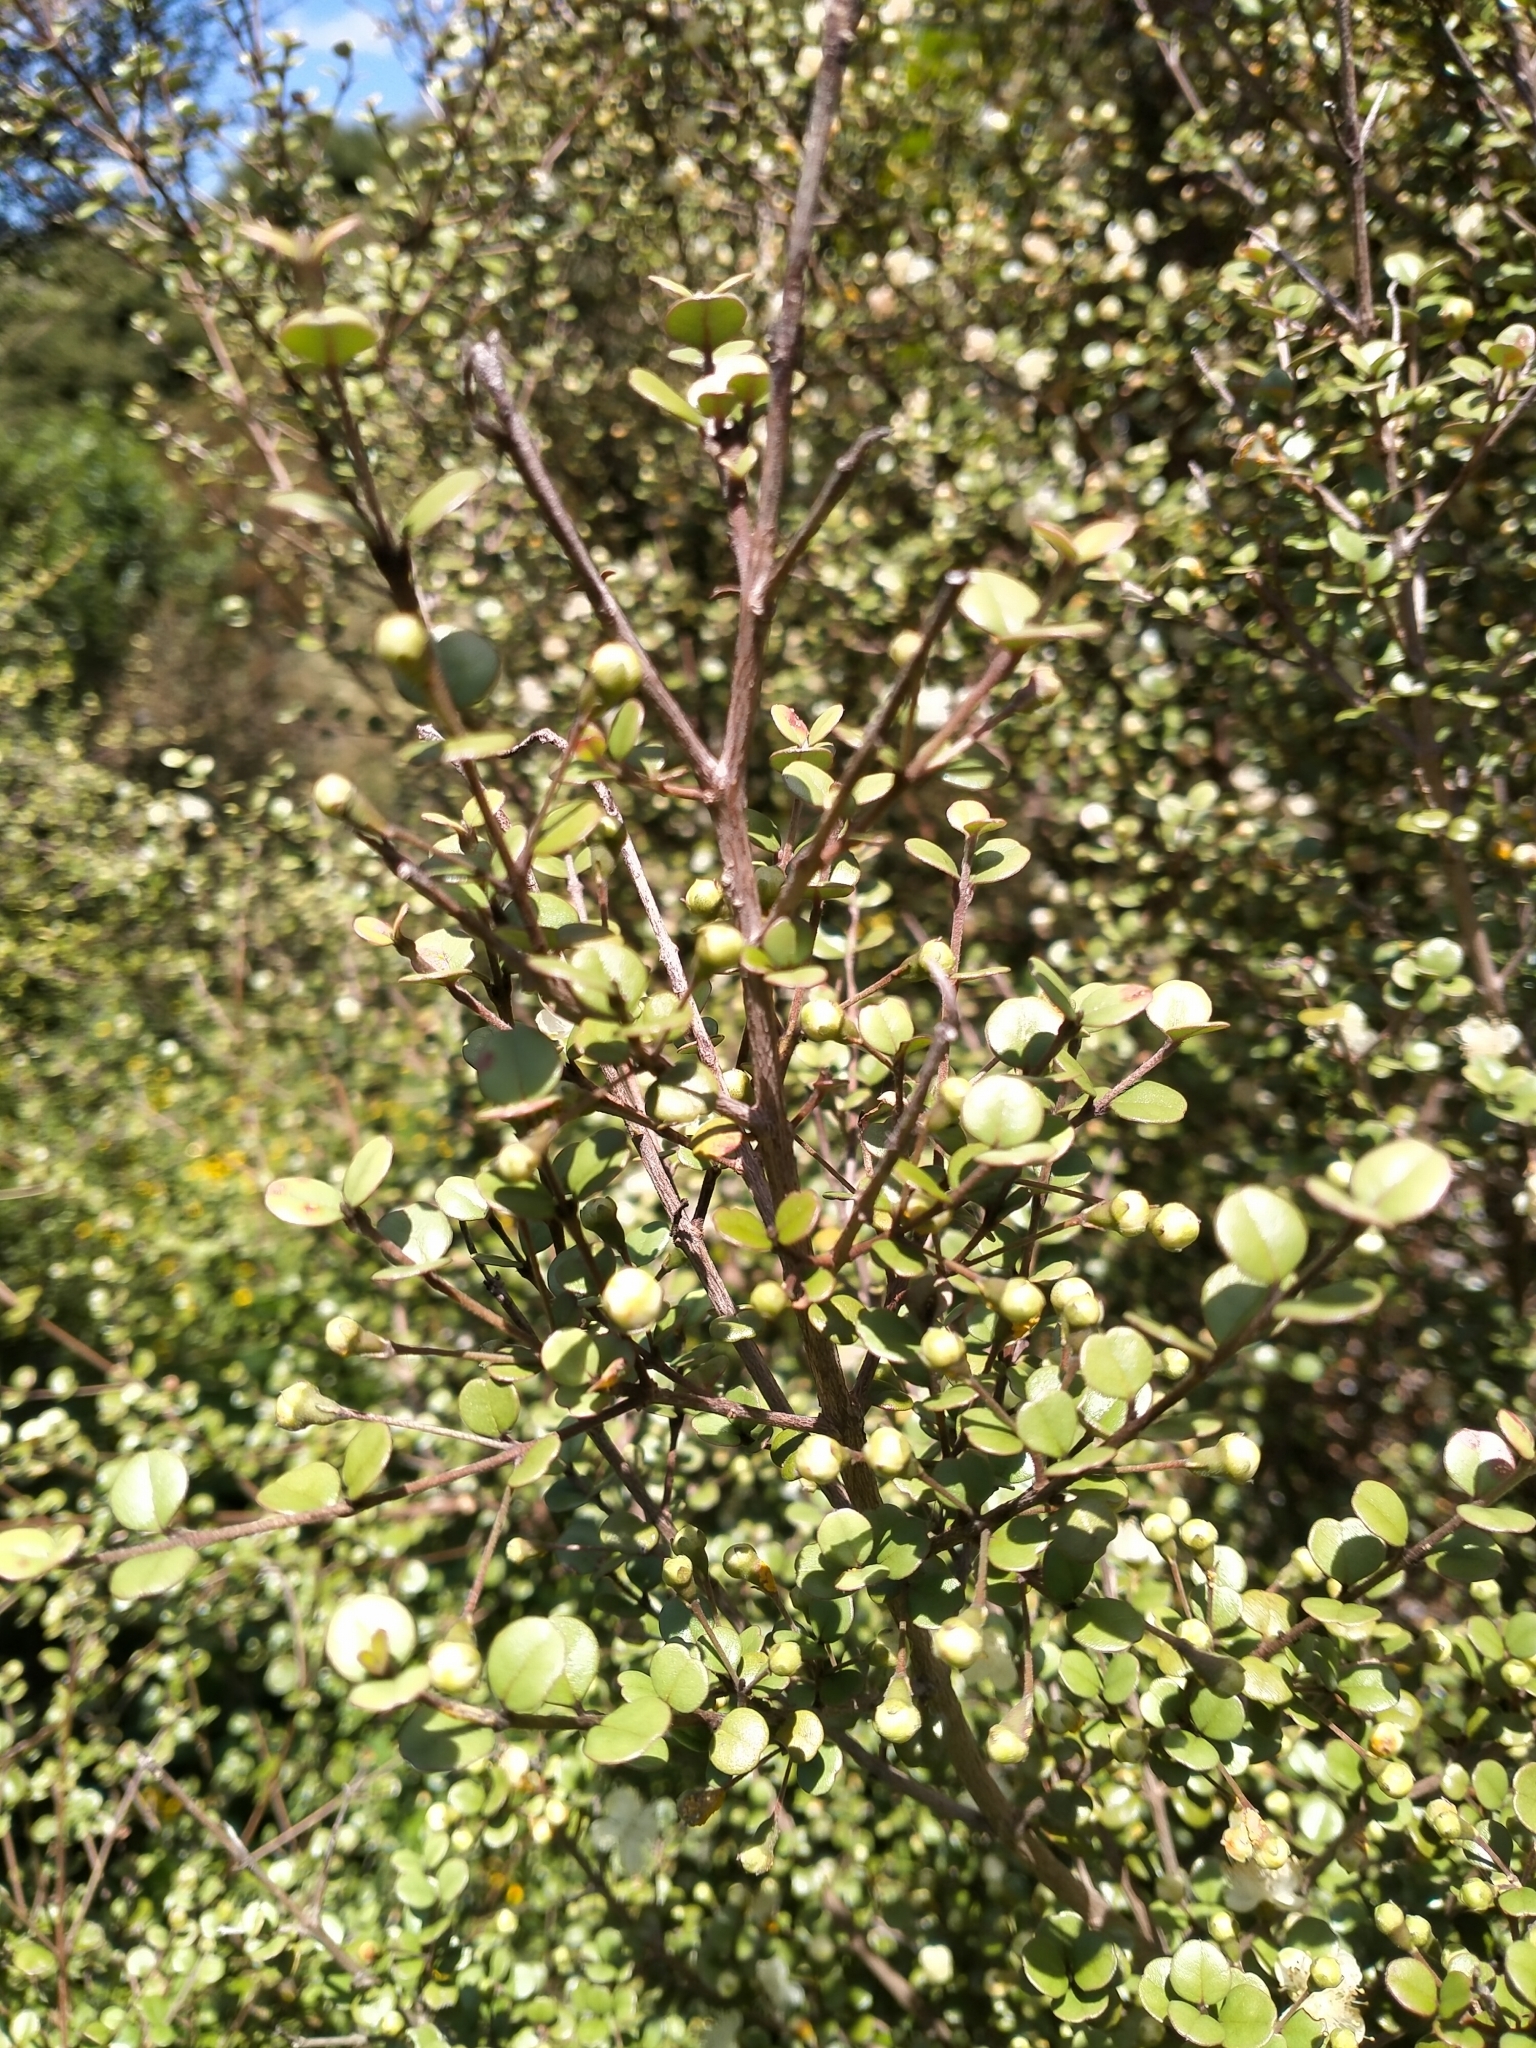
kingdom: Plantae
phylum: Tracheophyta
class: Magnoliopsida
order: Myrtales
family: Myrtaceae
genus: Lophomyrtus
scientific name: Lophomyrtus obcordata
